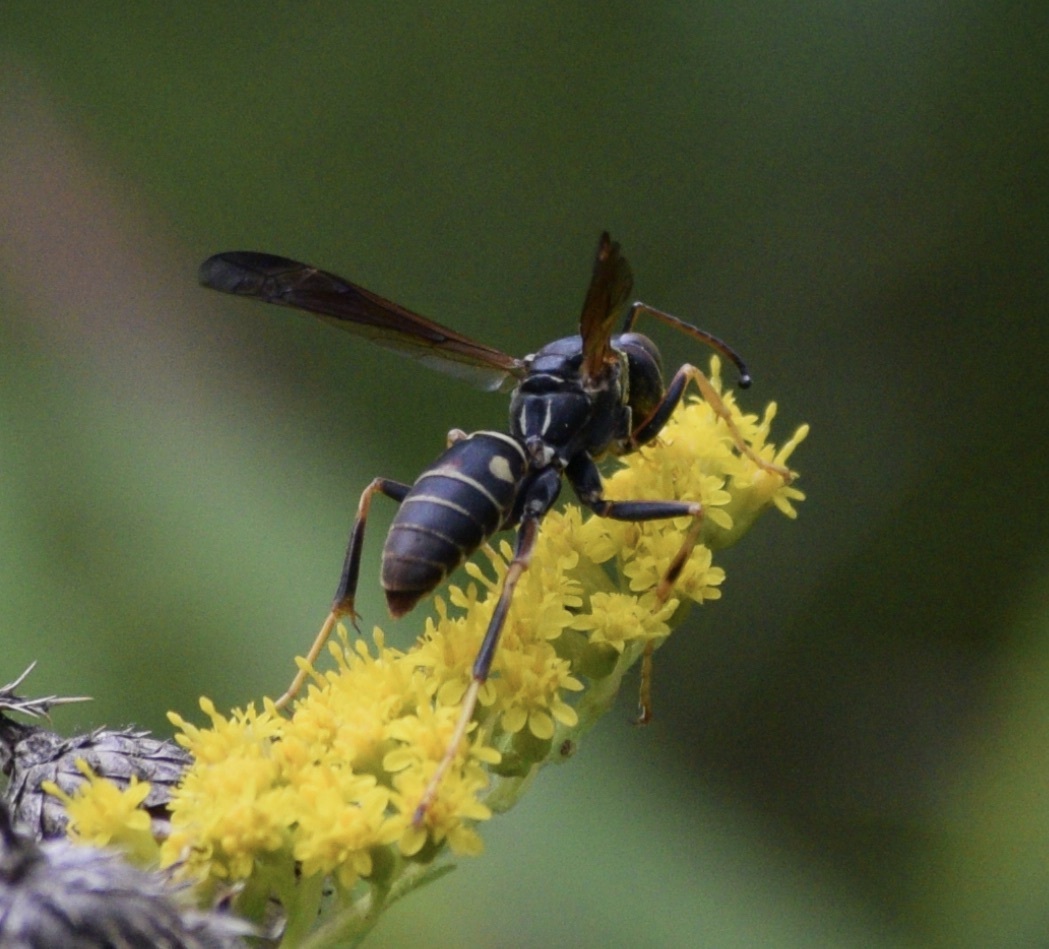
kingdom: Animalia
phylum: Arthropoda
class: Insecta
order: Hymenoptera
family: Eumenidae
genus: Polistes
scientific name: Polistes fuscatus
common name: Dark paper wasp
